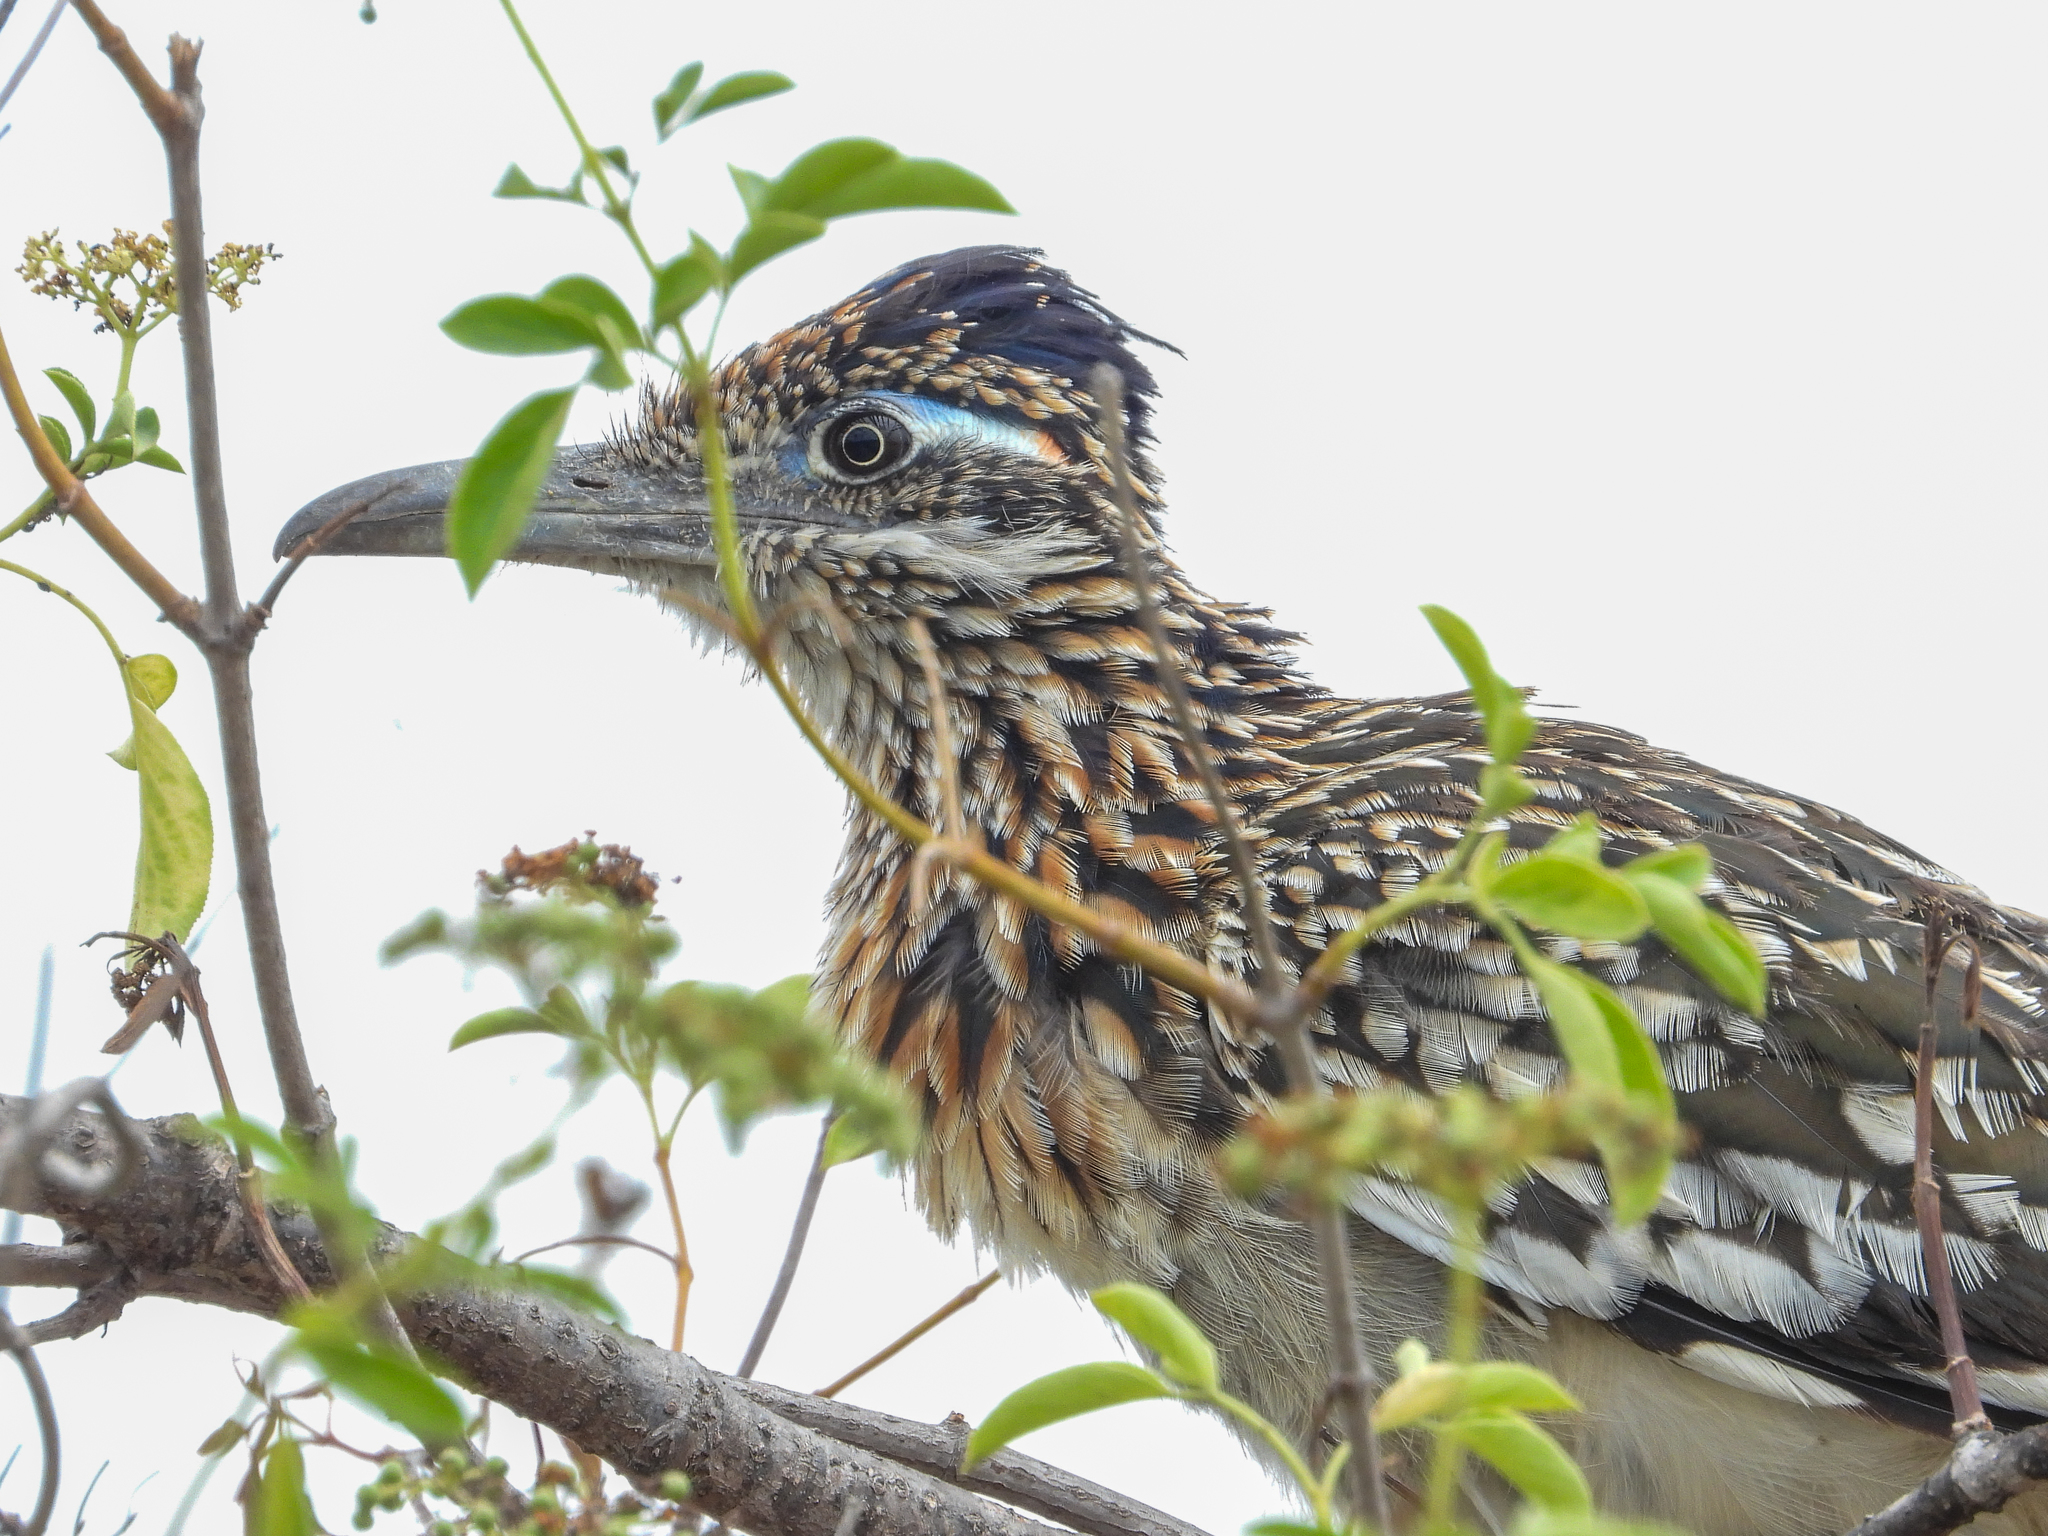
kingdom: Animalia
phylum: Chordata
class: Aves
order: Cuculiformes
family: Cuculidae
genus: Geococcyx
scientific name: Geococcyx californianus
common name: Greater roadrunner
